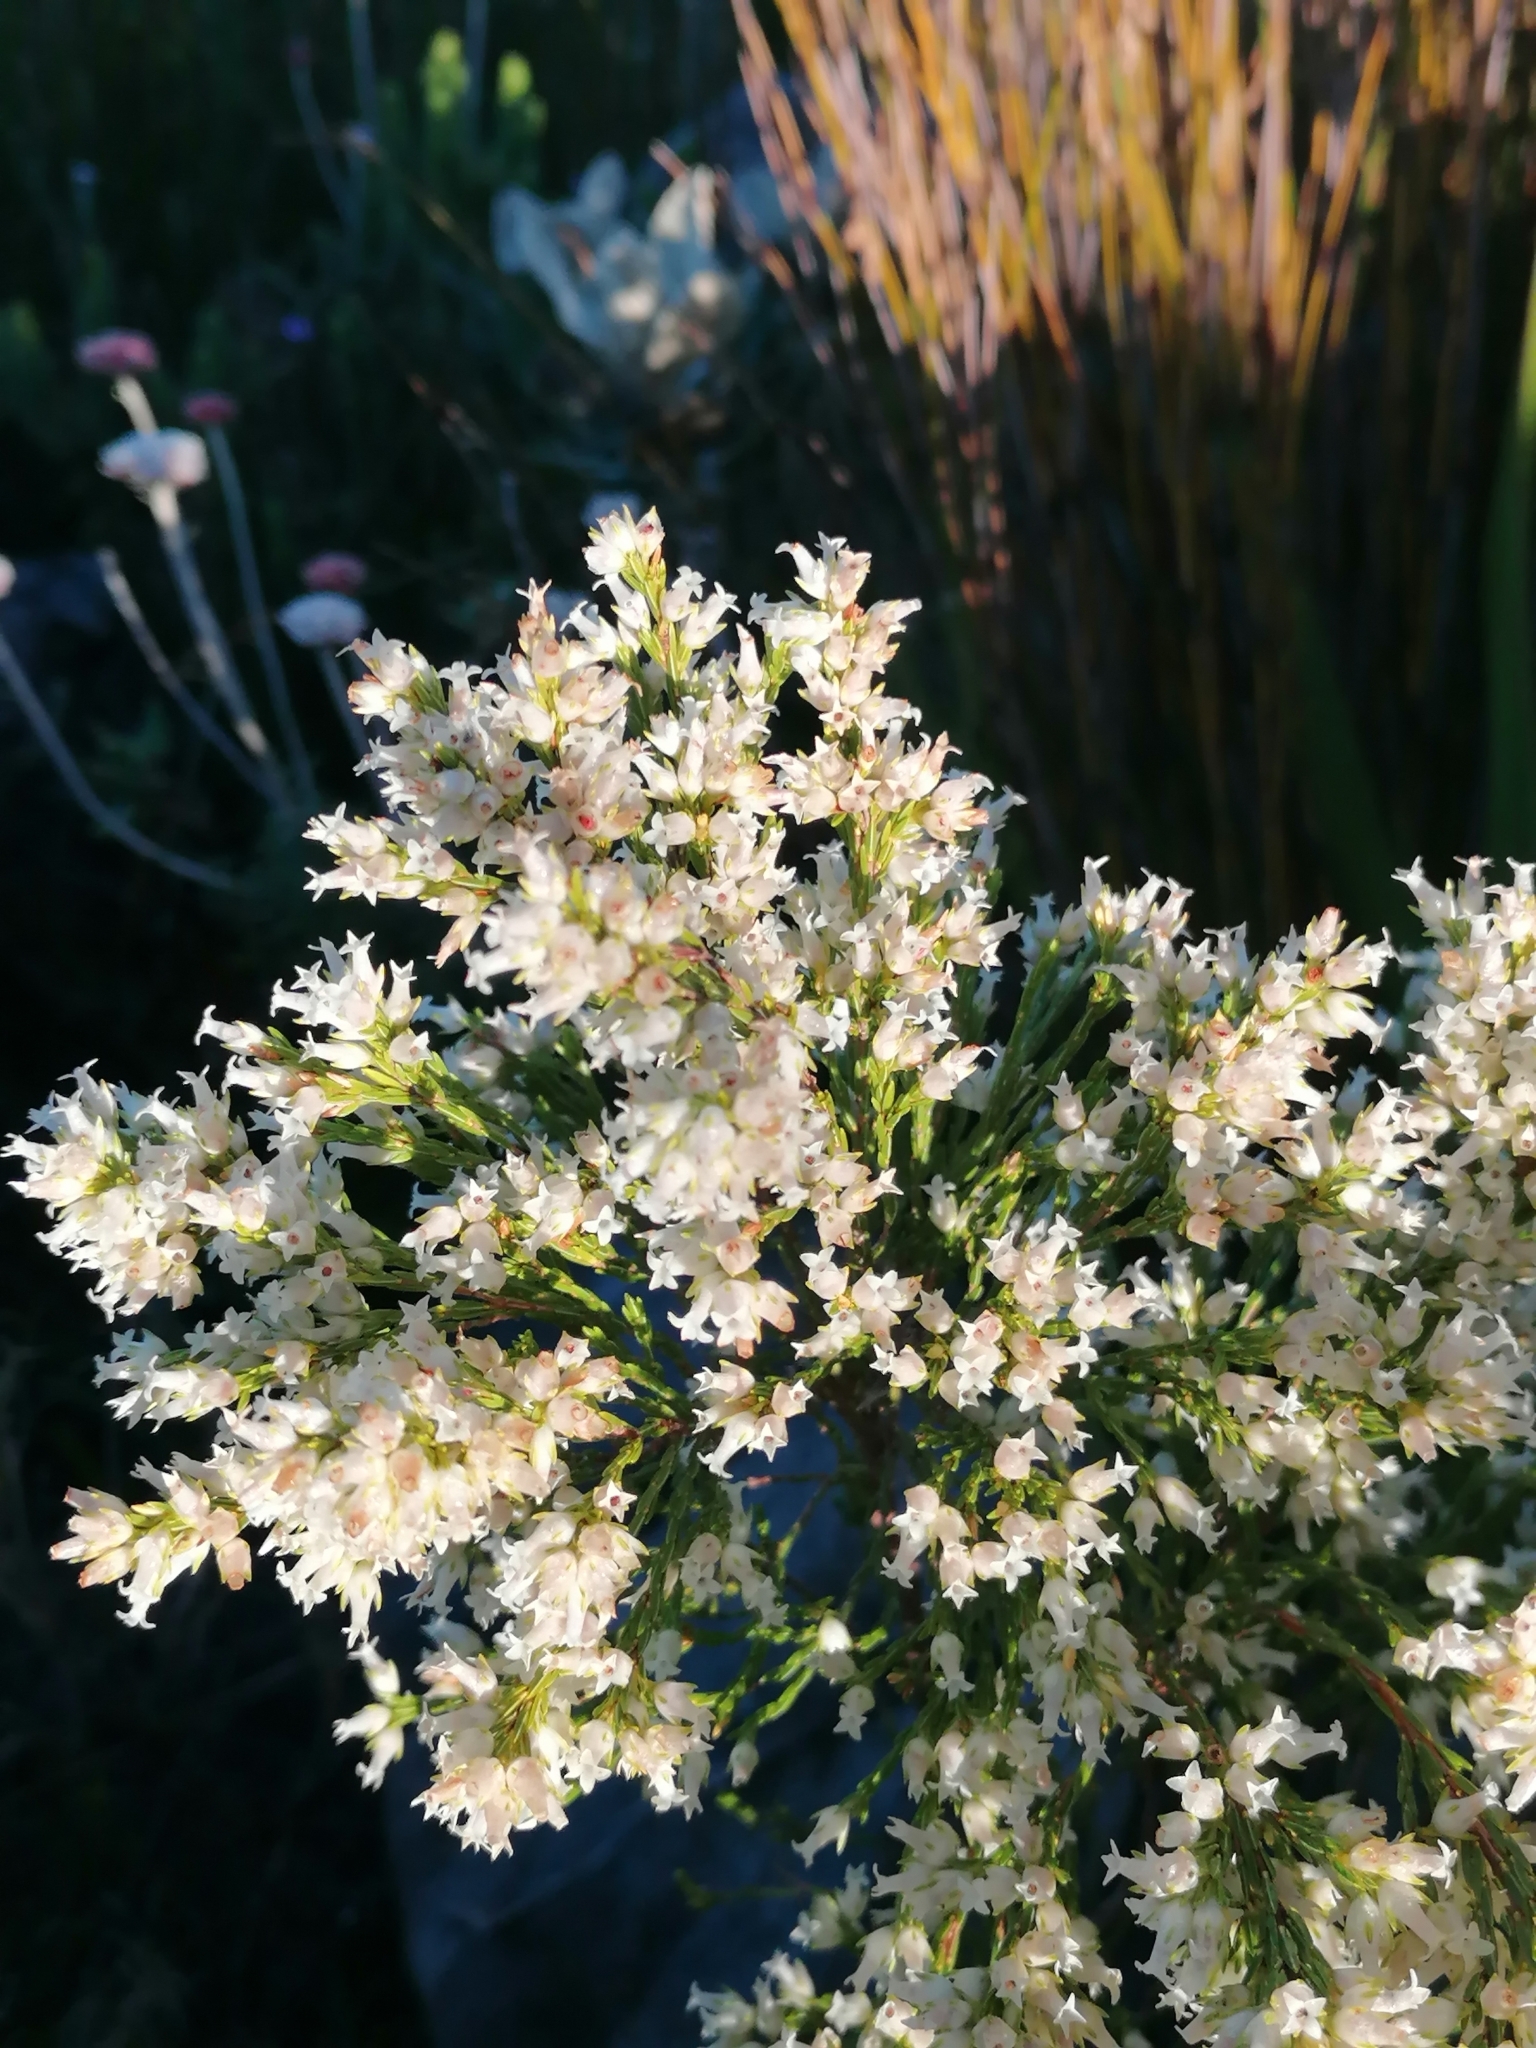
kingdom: Plantae
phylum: Tracheophyta
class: Magnoliopsida
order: Ericales
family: Ericaceae
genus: Erica
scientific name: Erica lutea
